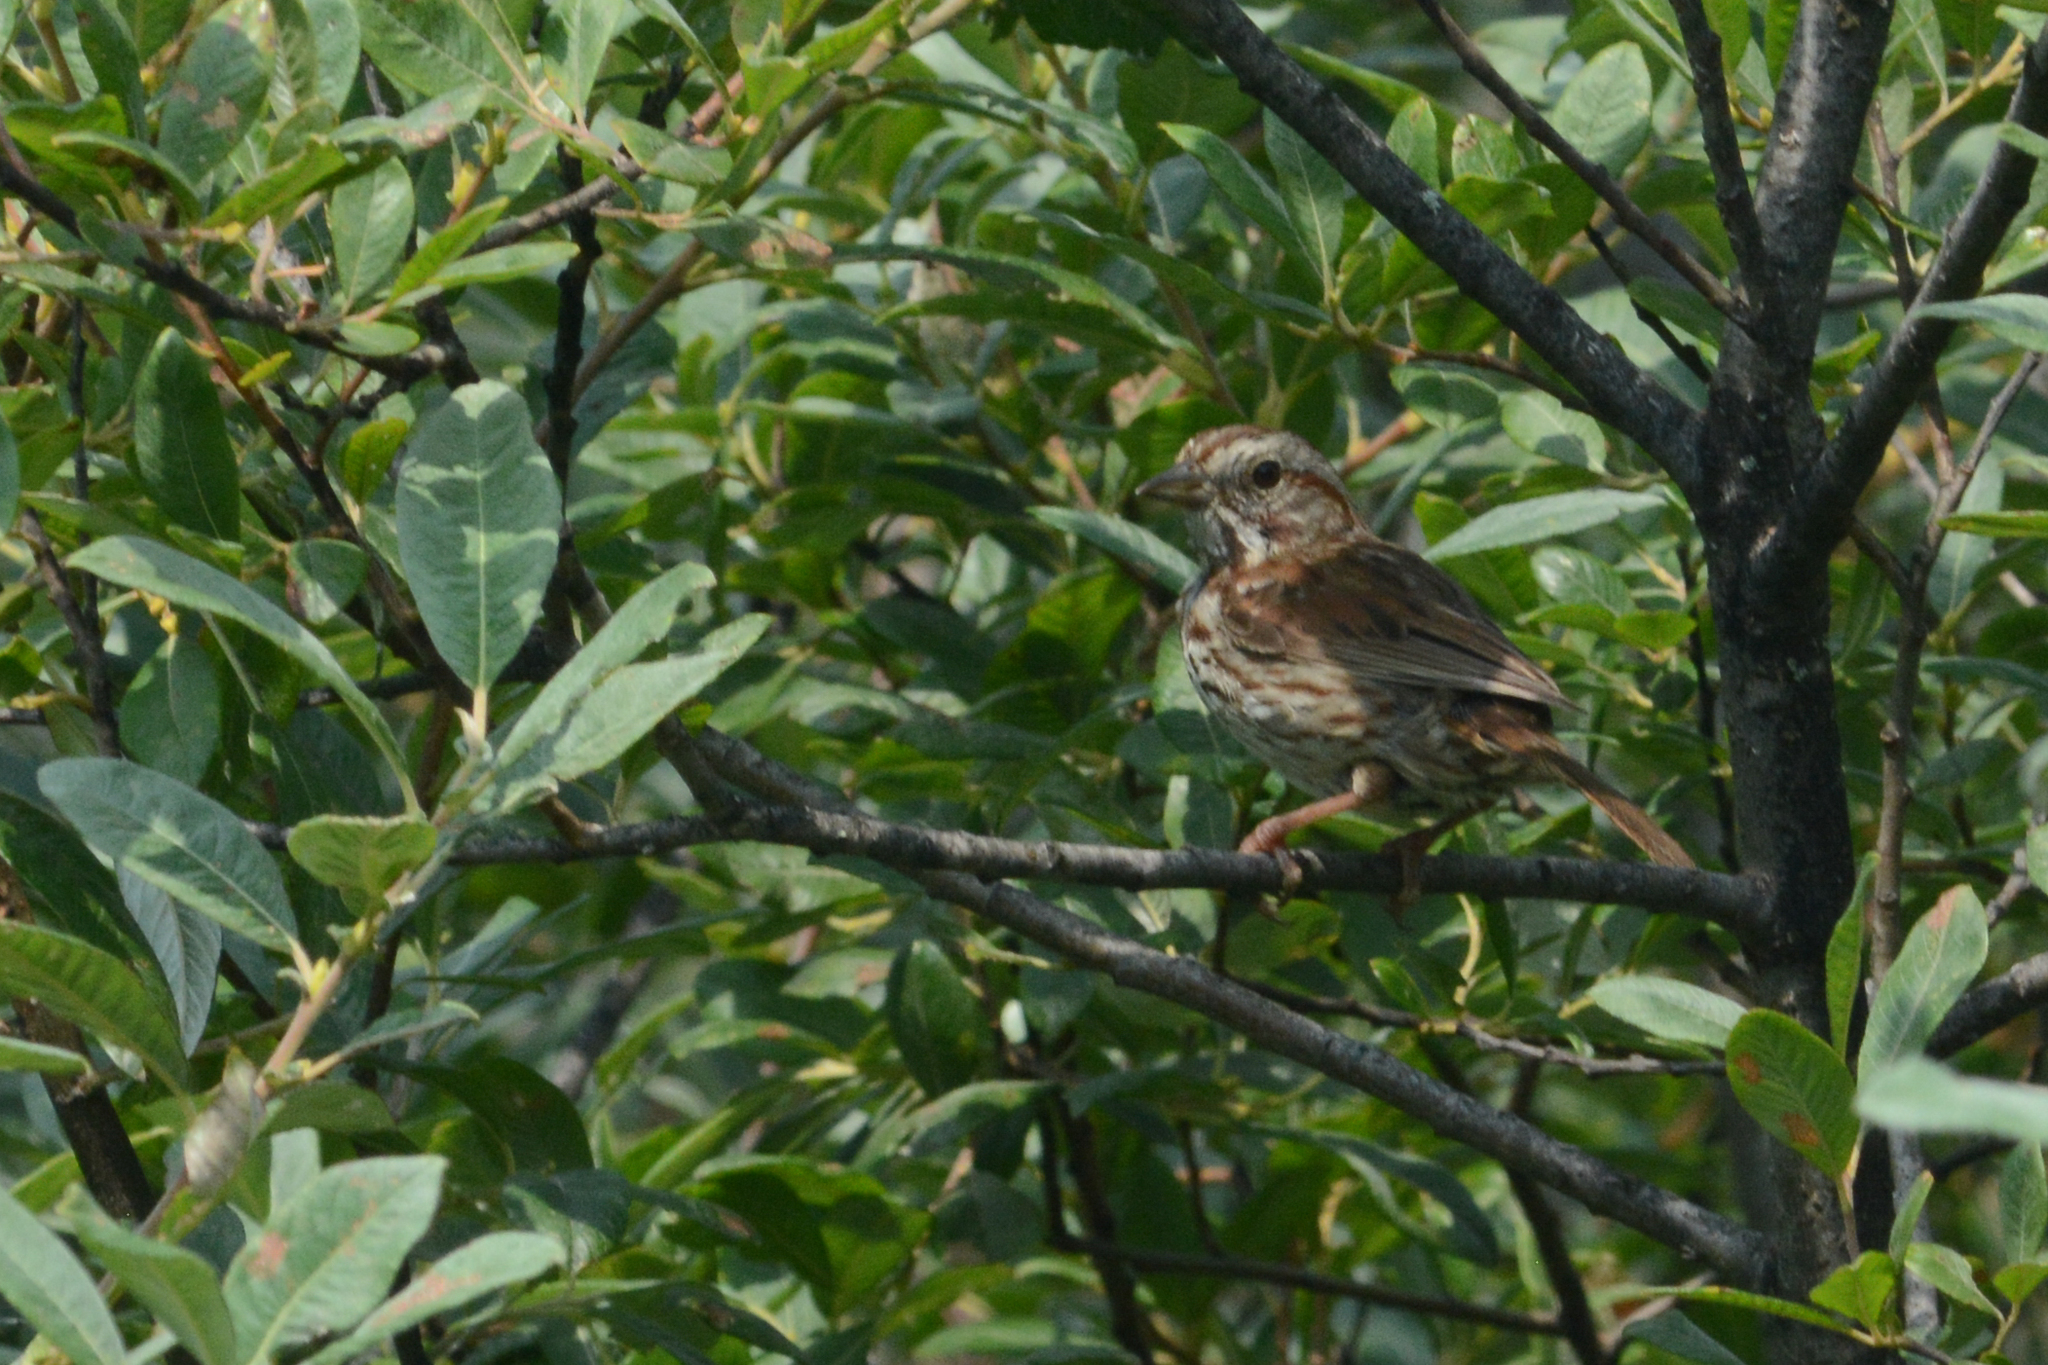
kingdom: Animalia
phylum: Chordata
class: Aves
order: Passeriformes
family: Passerellidae
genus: Melospiza
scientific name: Melospiza melodia
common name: Song sparrow
